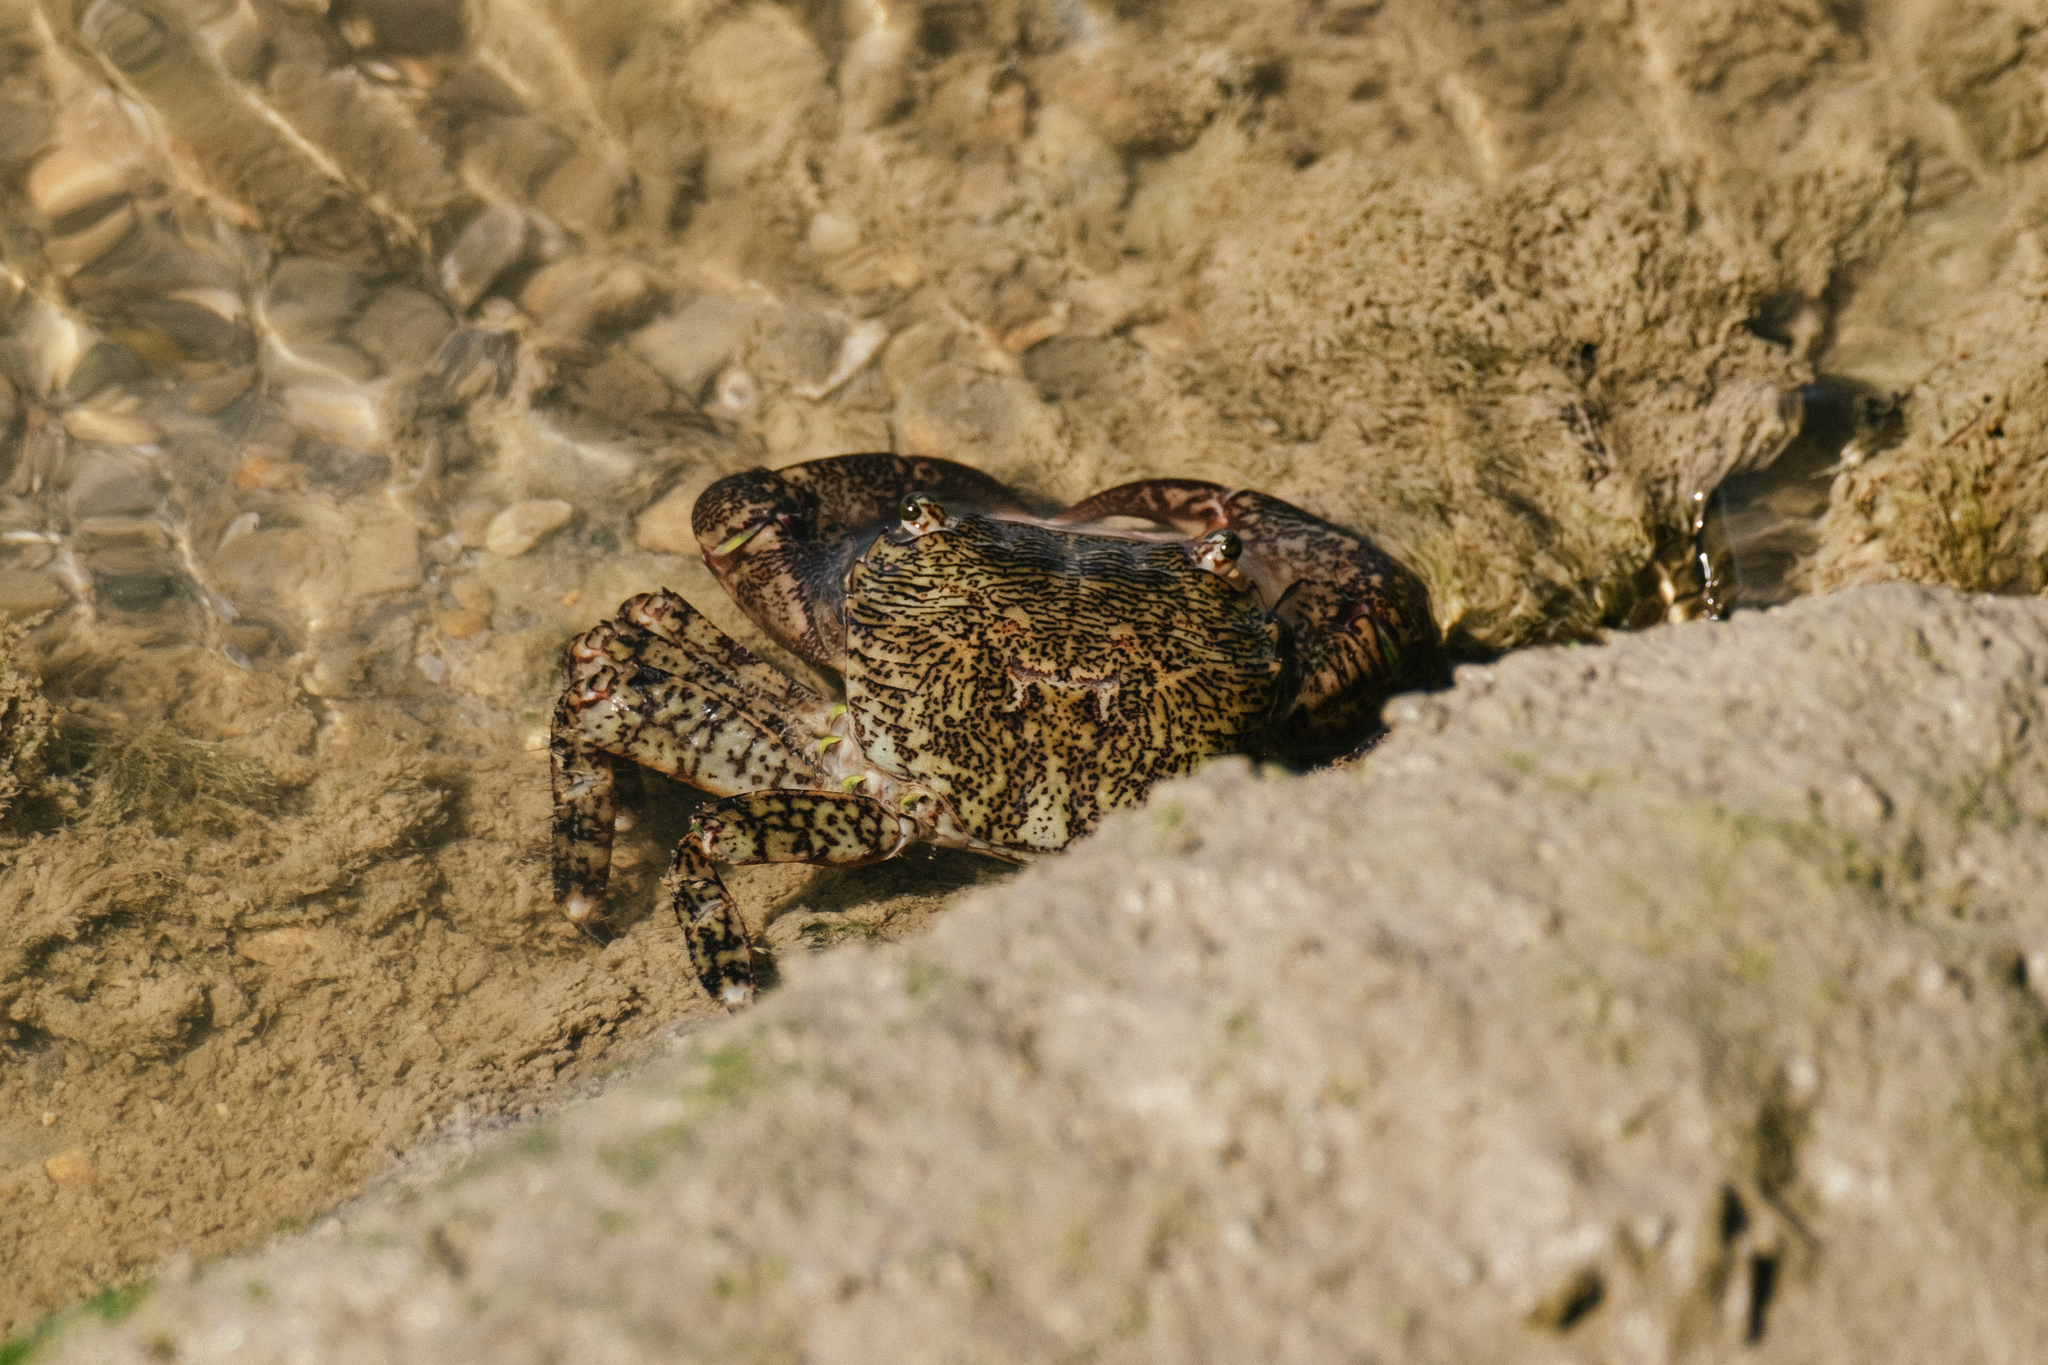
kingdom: Animalia
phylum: Arthropoda
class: Malacostraca
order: Decapoda
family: Grapsidae
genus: Pachygrapsus
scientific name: Pachygrapsus marmoratus
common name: Marbled rock crab
